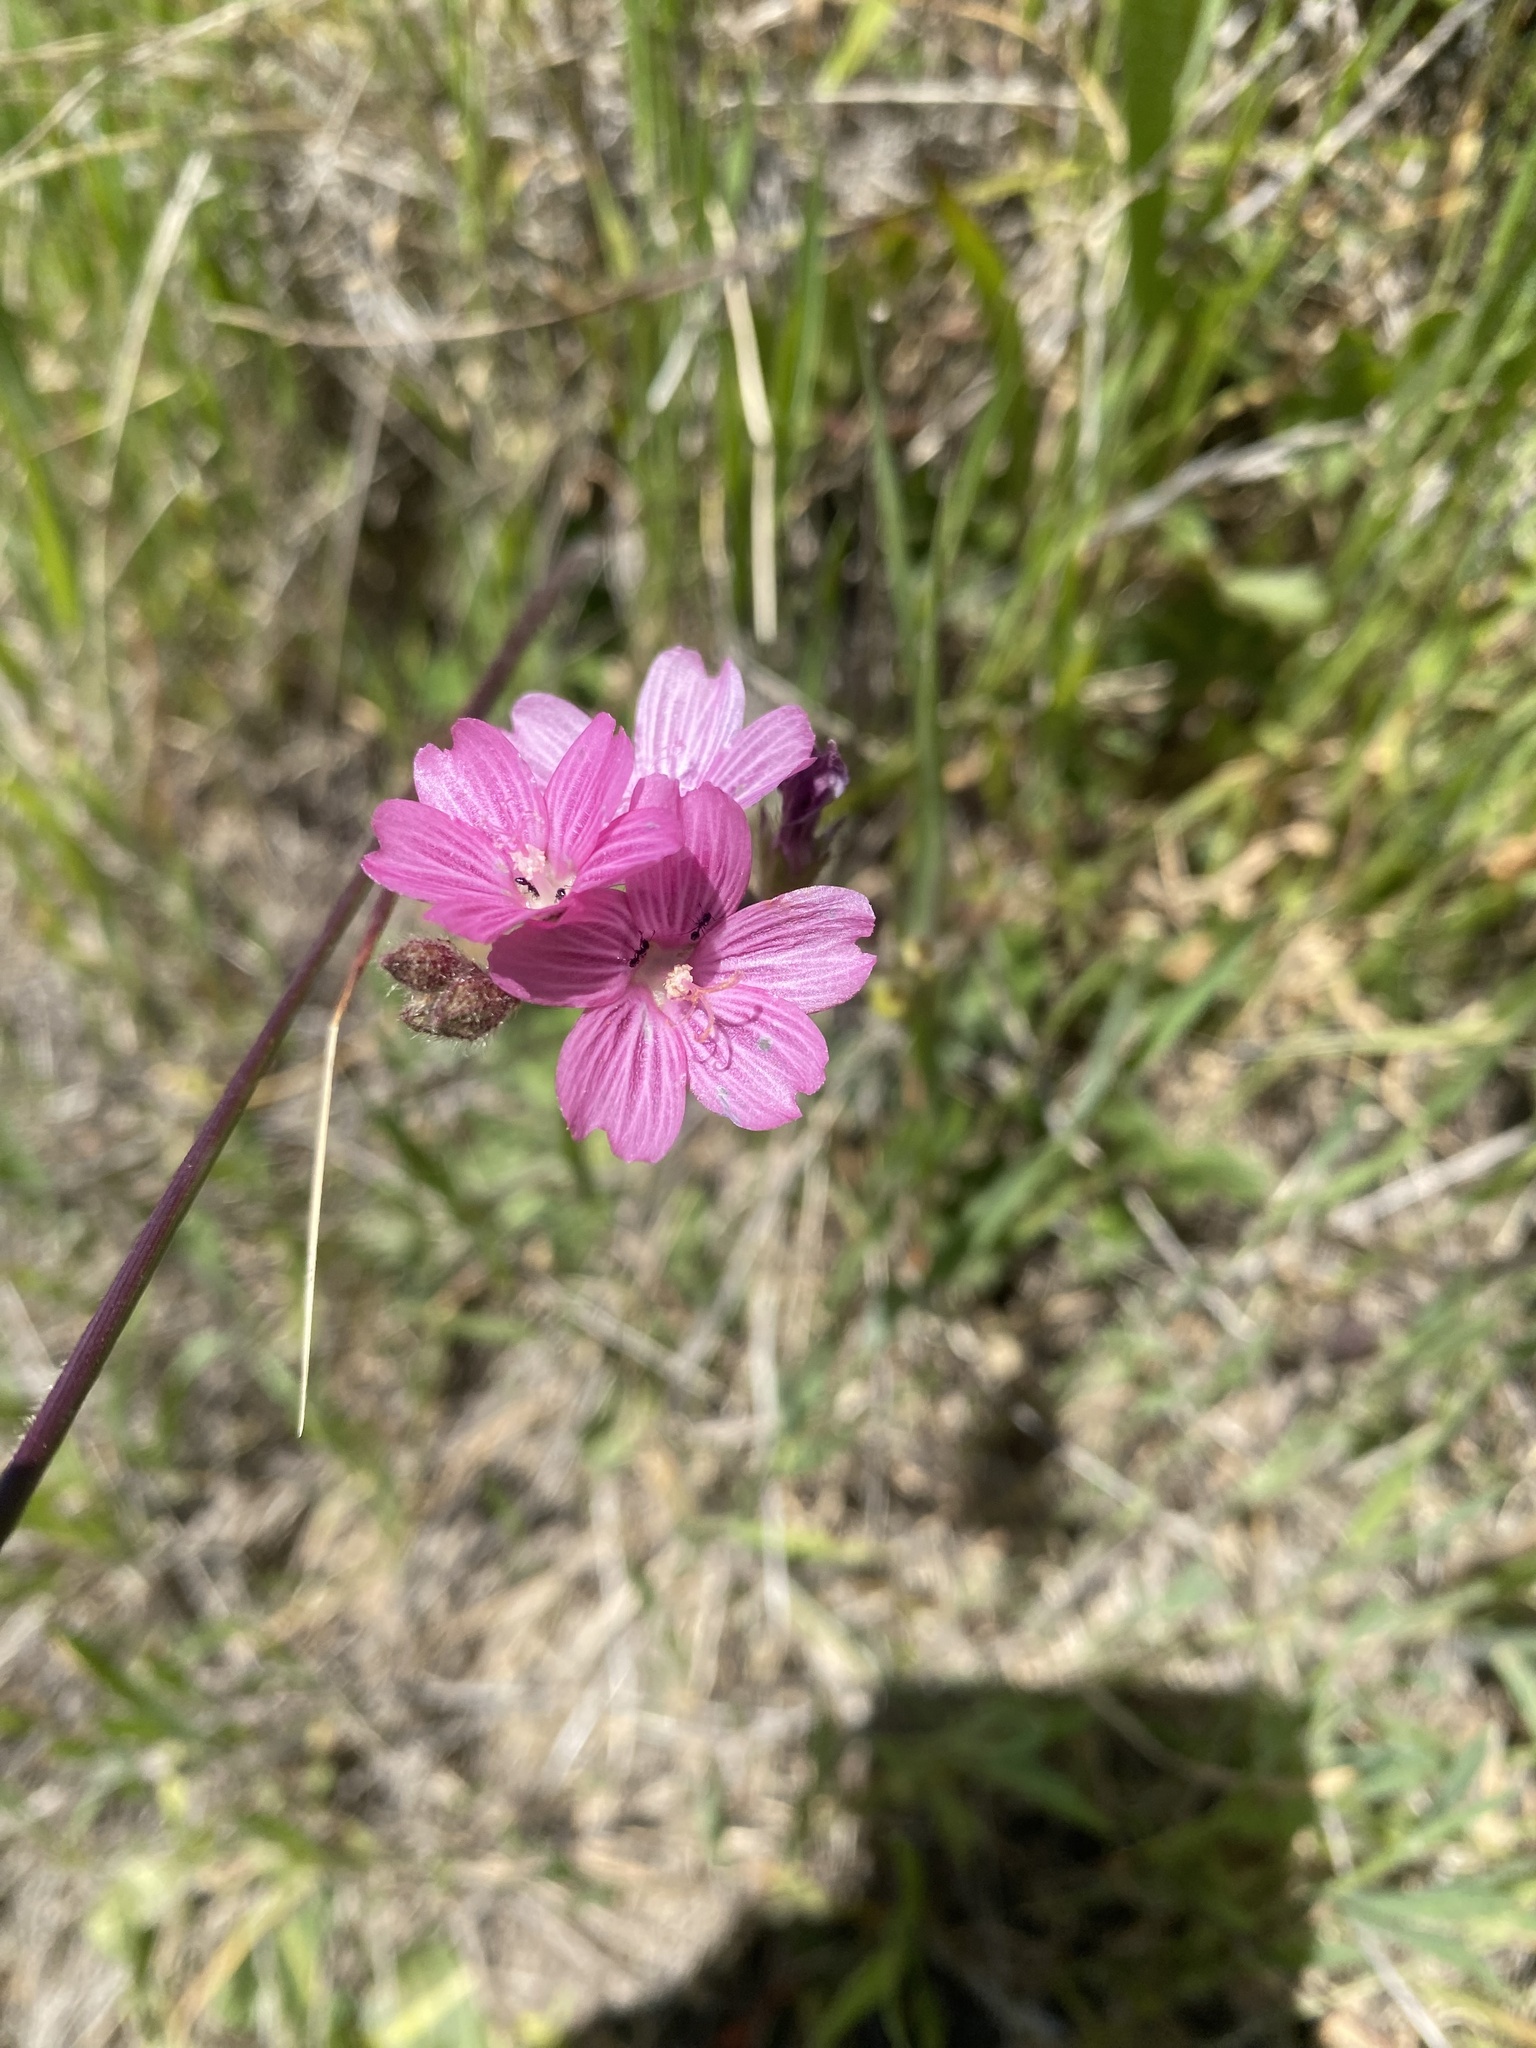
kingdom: Plantae
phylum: Tracheophyta
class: Magnoliopsida
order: Malvales
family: Malvaceae
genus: Sidalcea
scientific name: Sidalcea malviflora
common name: Greek mallow
